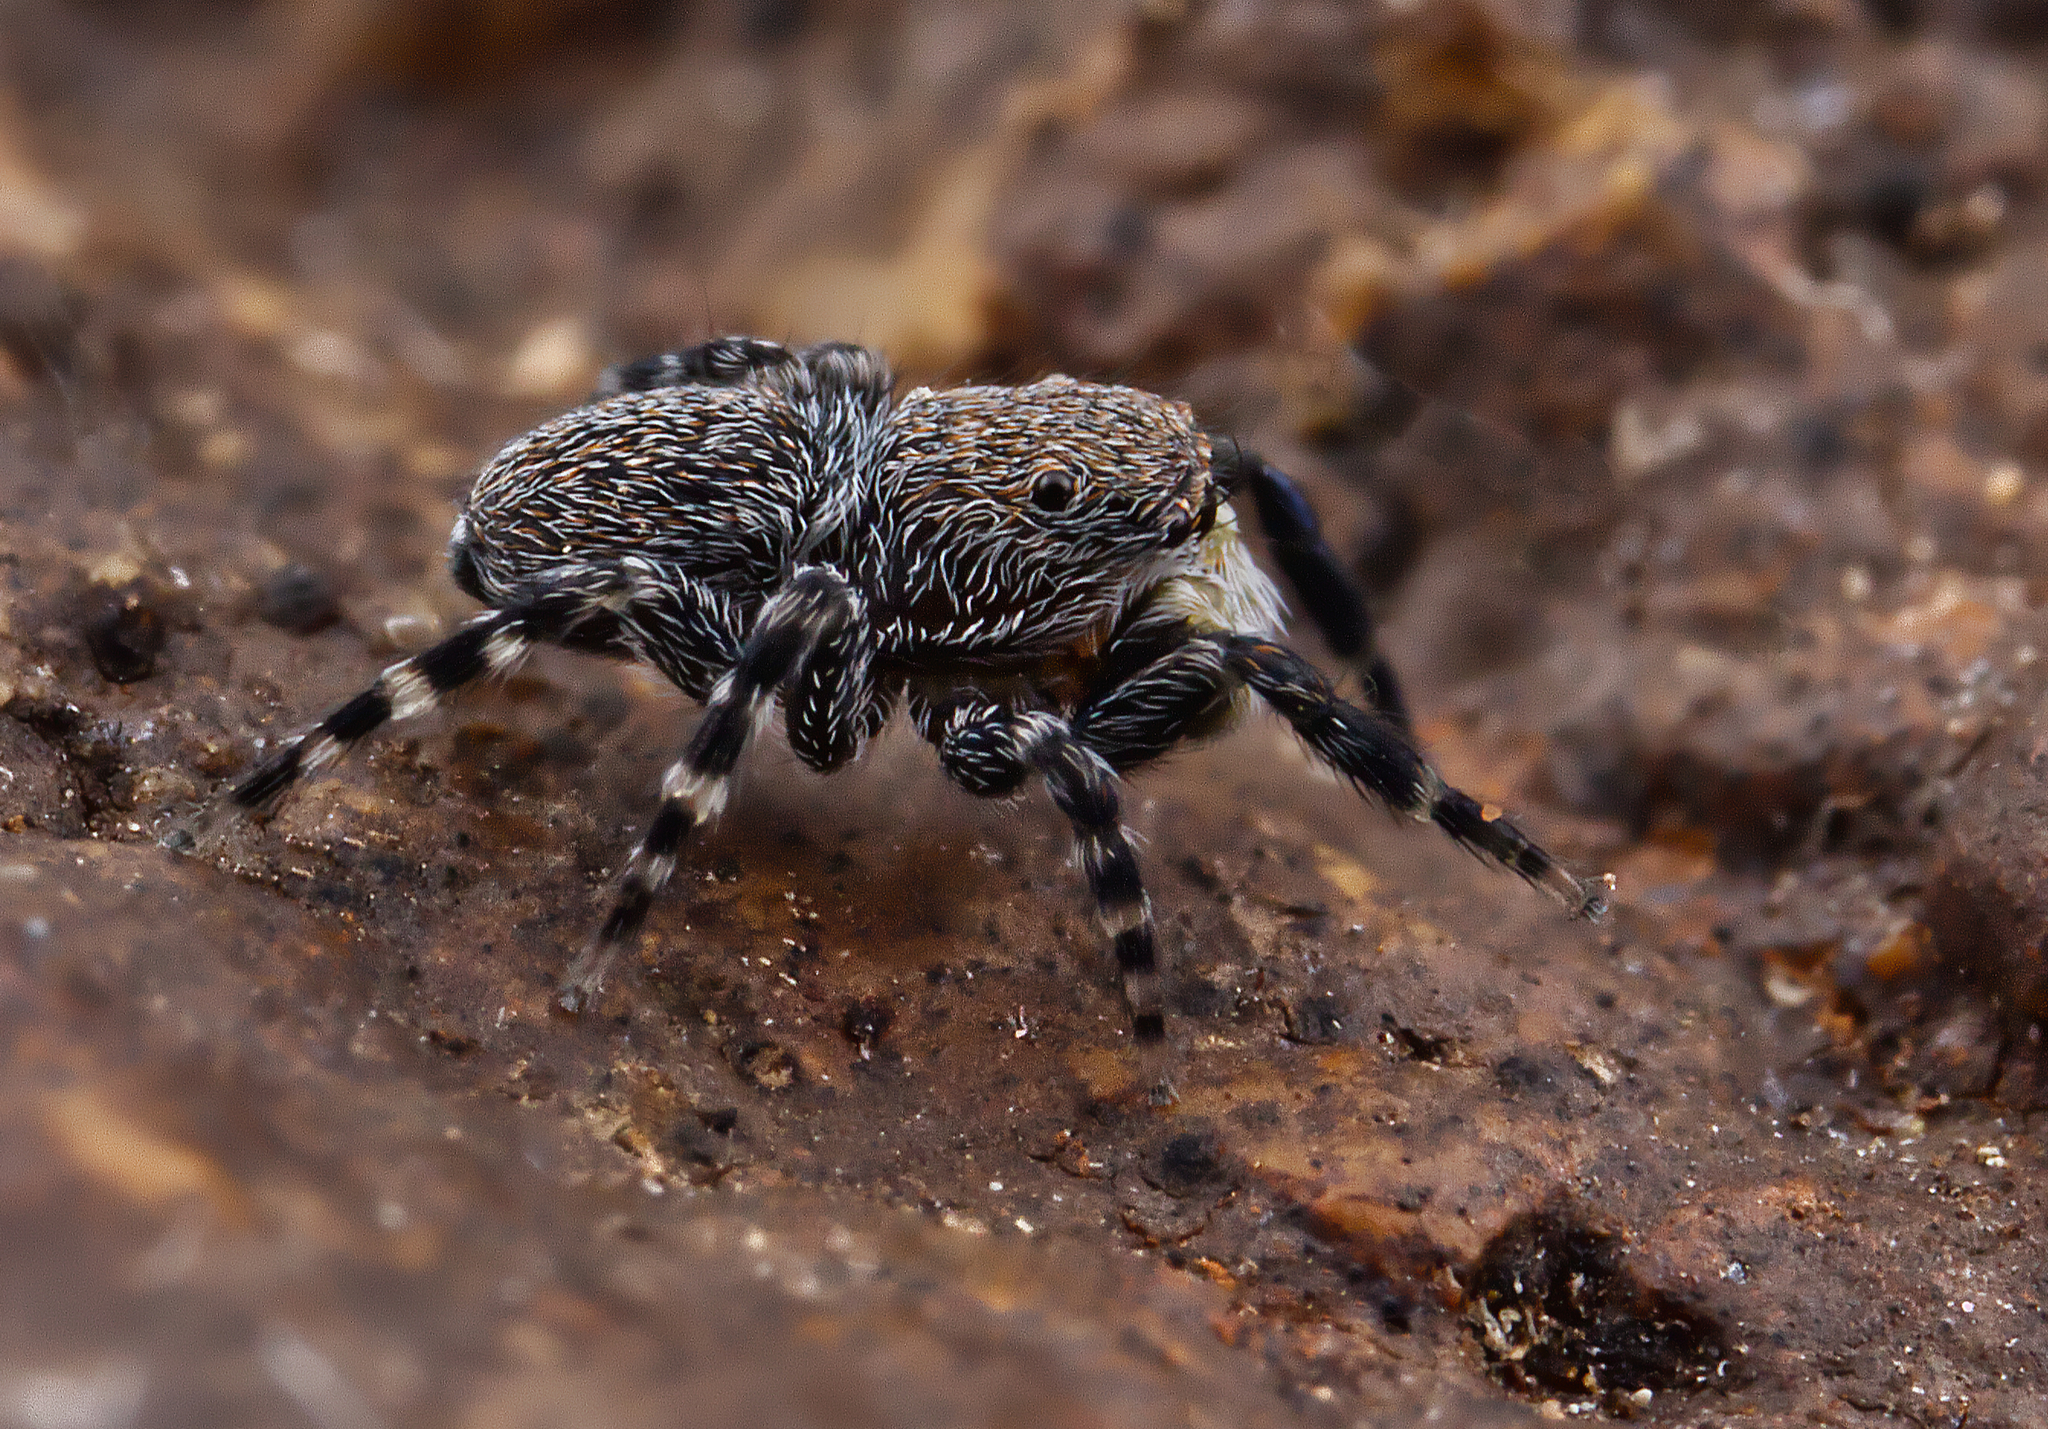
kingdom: Animalia
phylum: Arthropoda
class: Arachnida
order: Araneae
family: Salticidae
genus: Talavera
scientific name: Talavera minuta
